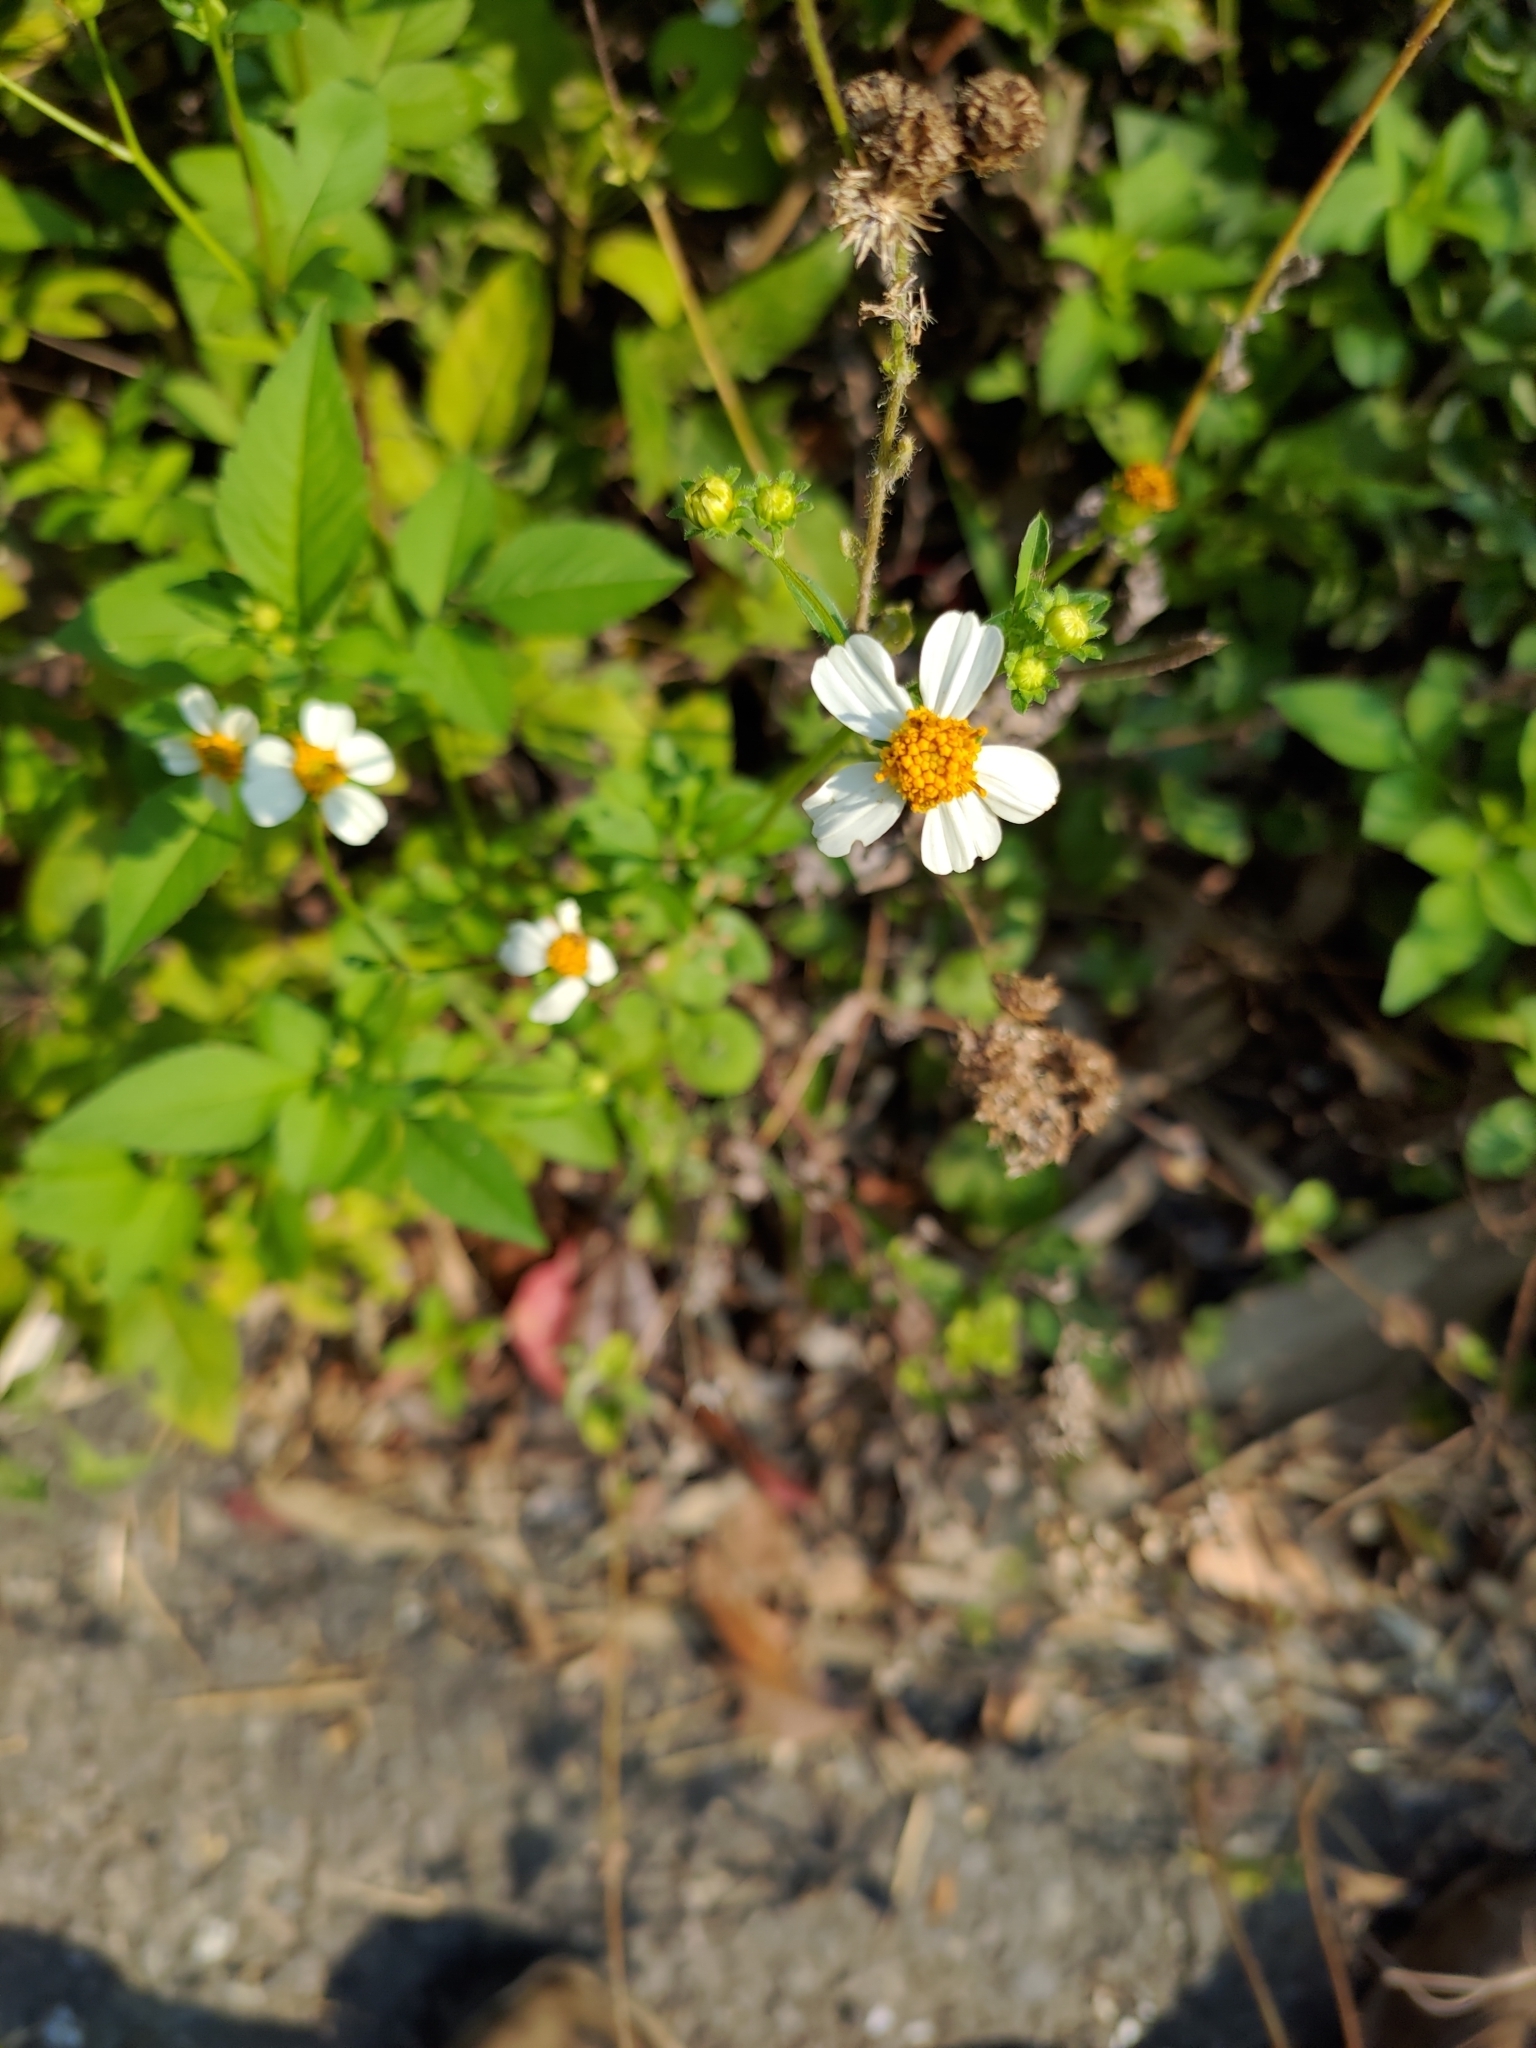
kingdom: Plantae
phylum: Tracheophyta
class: Magnoliopsida
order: Asterales
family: Asteraceae
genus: Bidens
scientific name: Bidens alba
